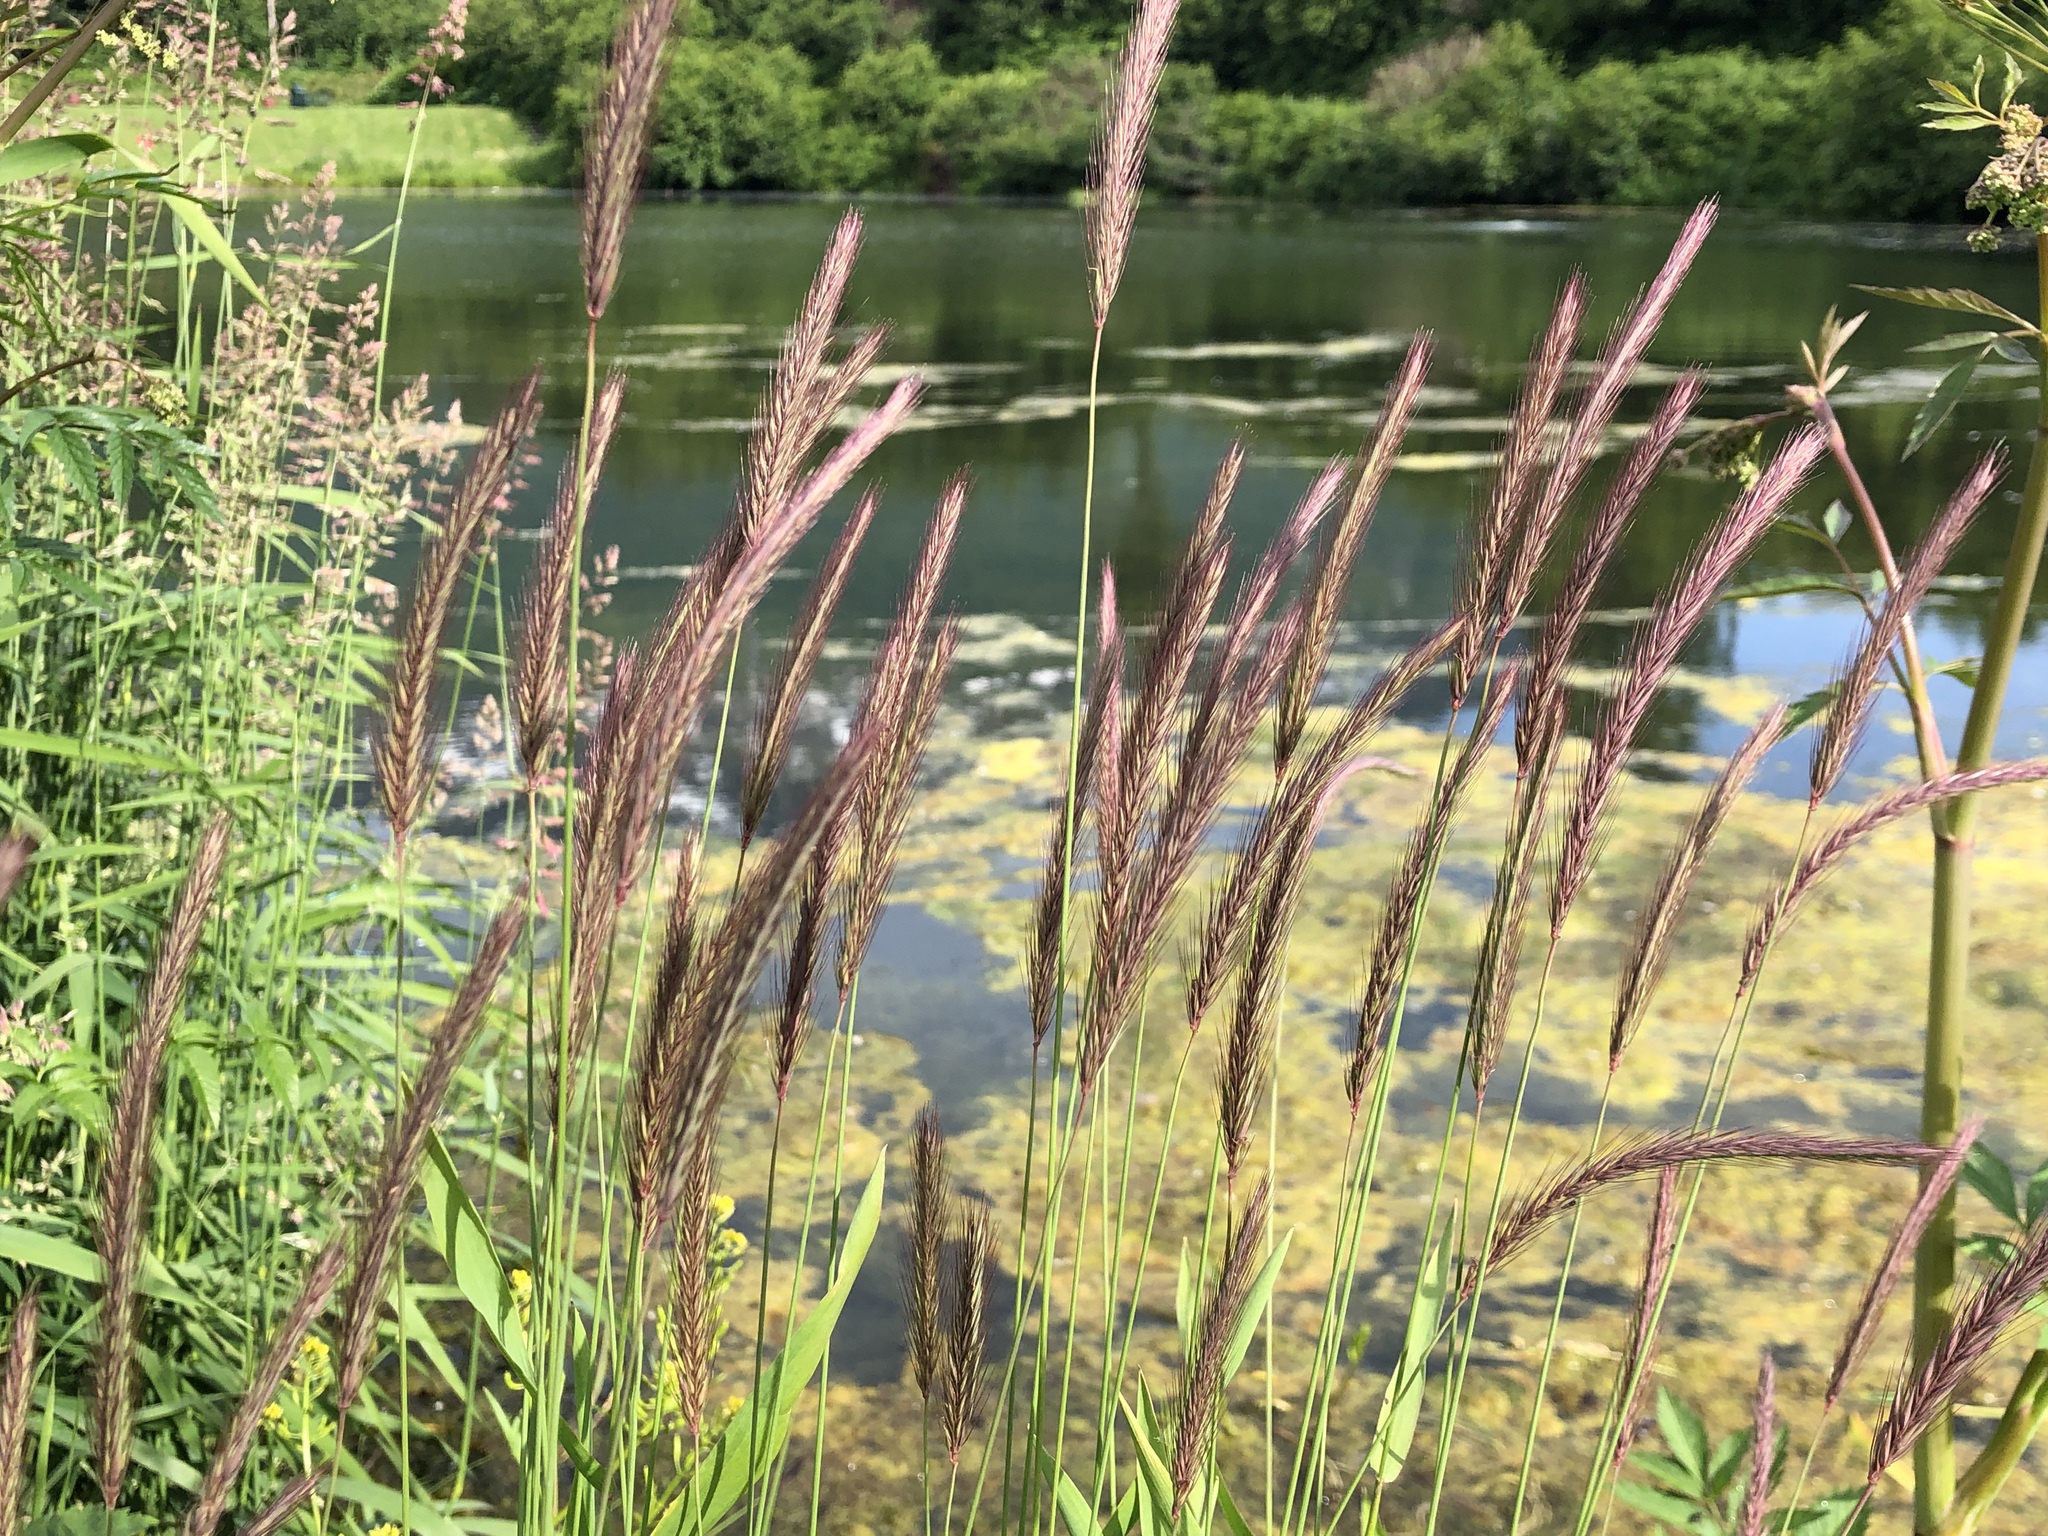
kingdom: Plantae
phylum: Tracheophyta
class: Liliopsida
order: Poales
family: Poaceae
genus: Hordeum
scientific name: Hordeum brachyantherum
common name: Meadow barley
